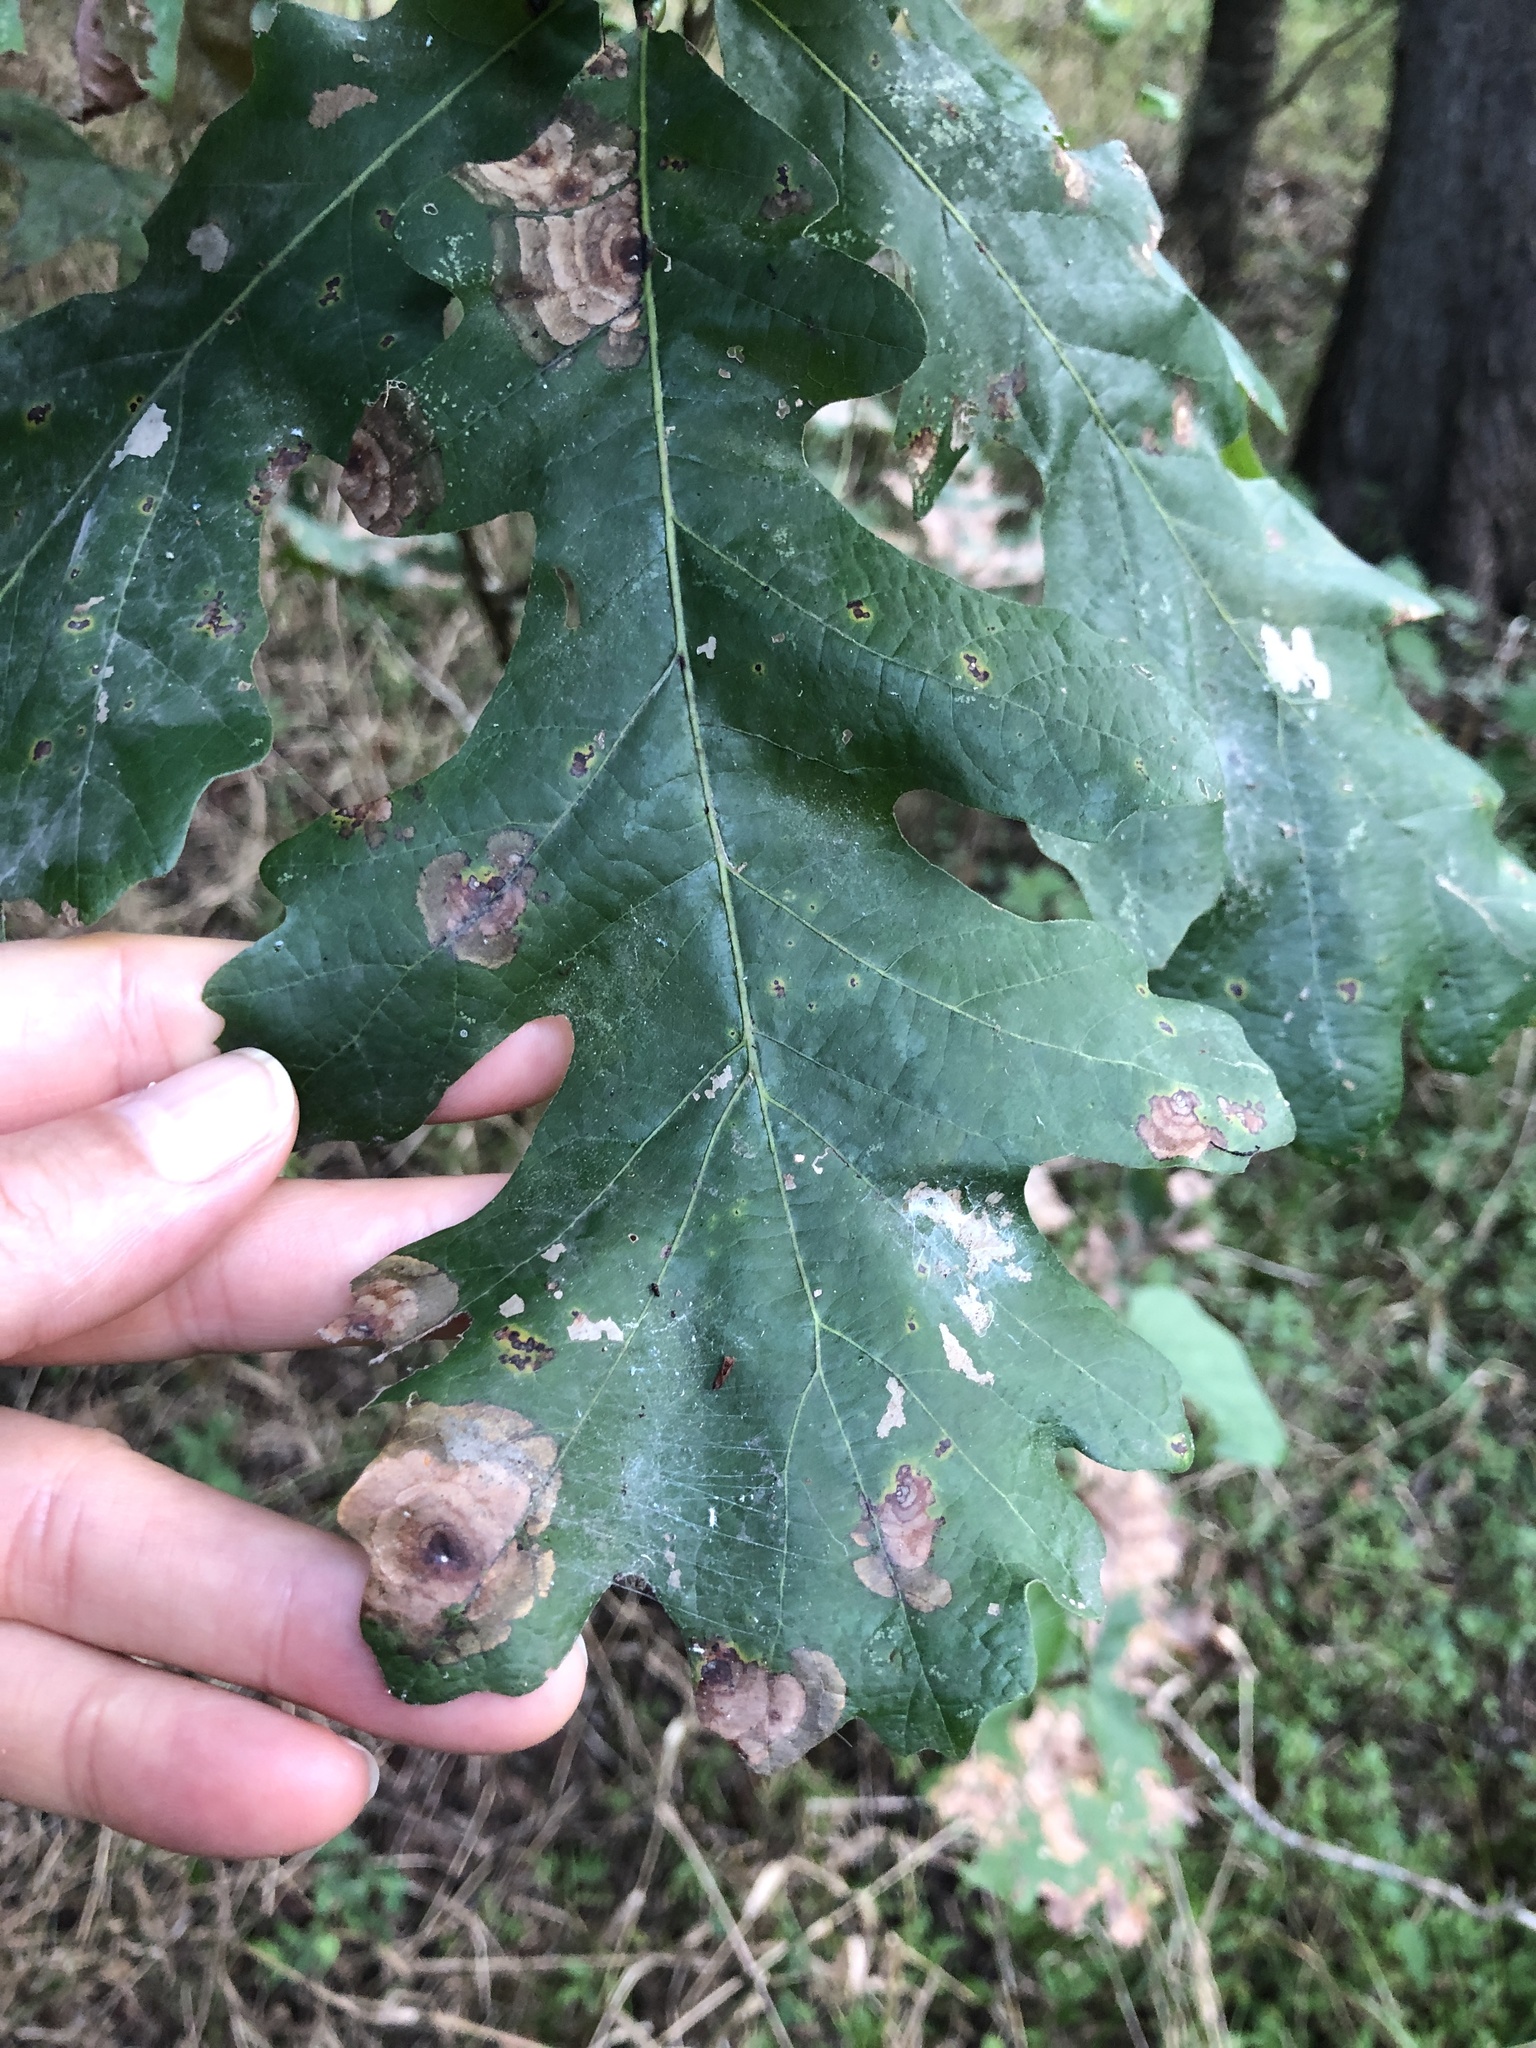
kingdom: Plantae
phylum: Tracheophyta
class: Magnoliopsida
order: Fagales
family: Fagaceae
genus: Quercus
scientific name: Quercus macrocarpa
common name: Bur oak
